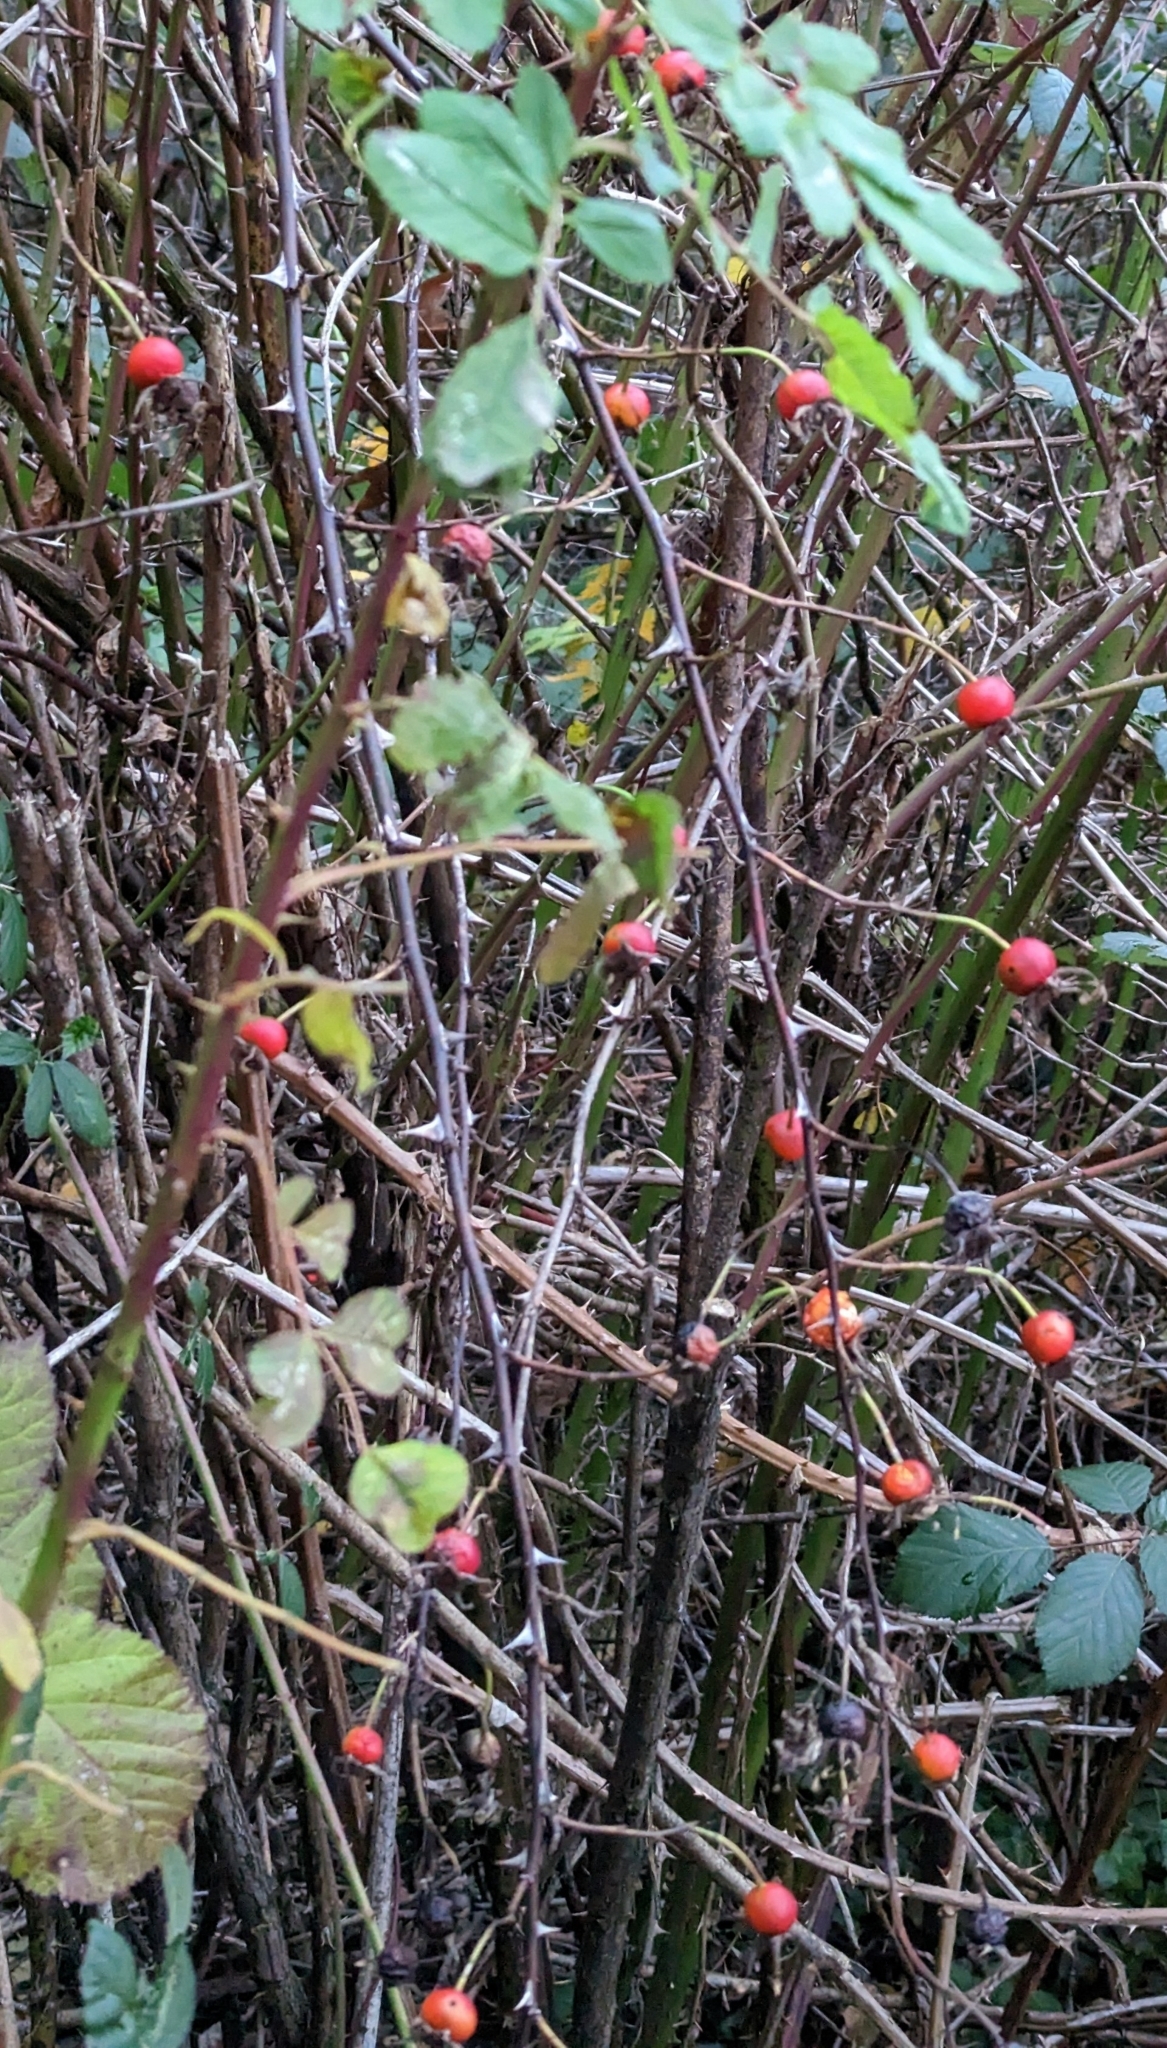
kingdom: Plantae
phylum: Tracheophyta
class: Magnoliopsida
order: Rosales
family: Rosaceae
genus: Rosa
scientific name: Rosa nutkana
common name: Nootka rose
